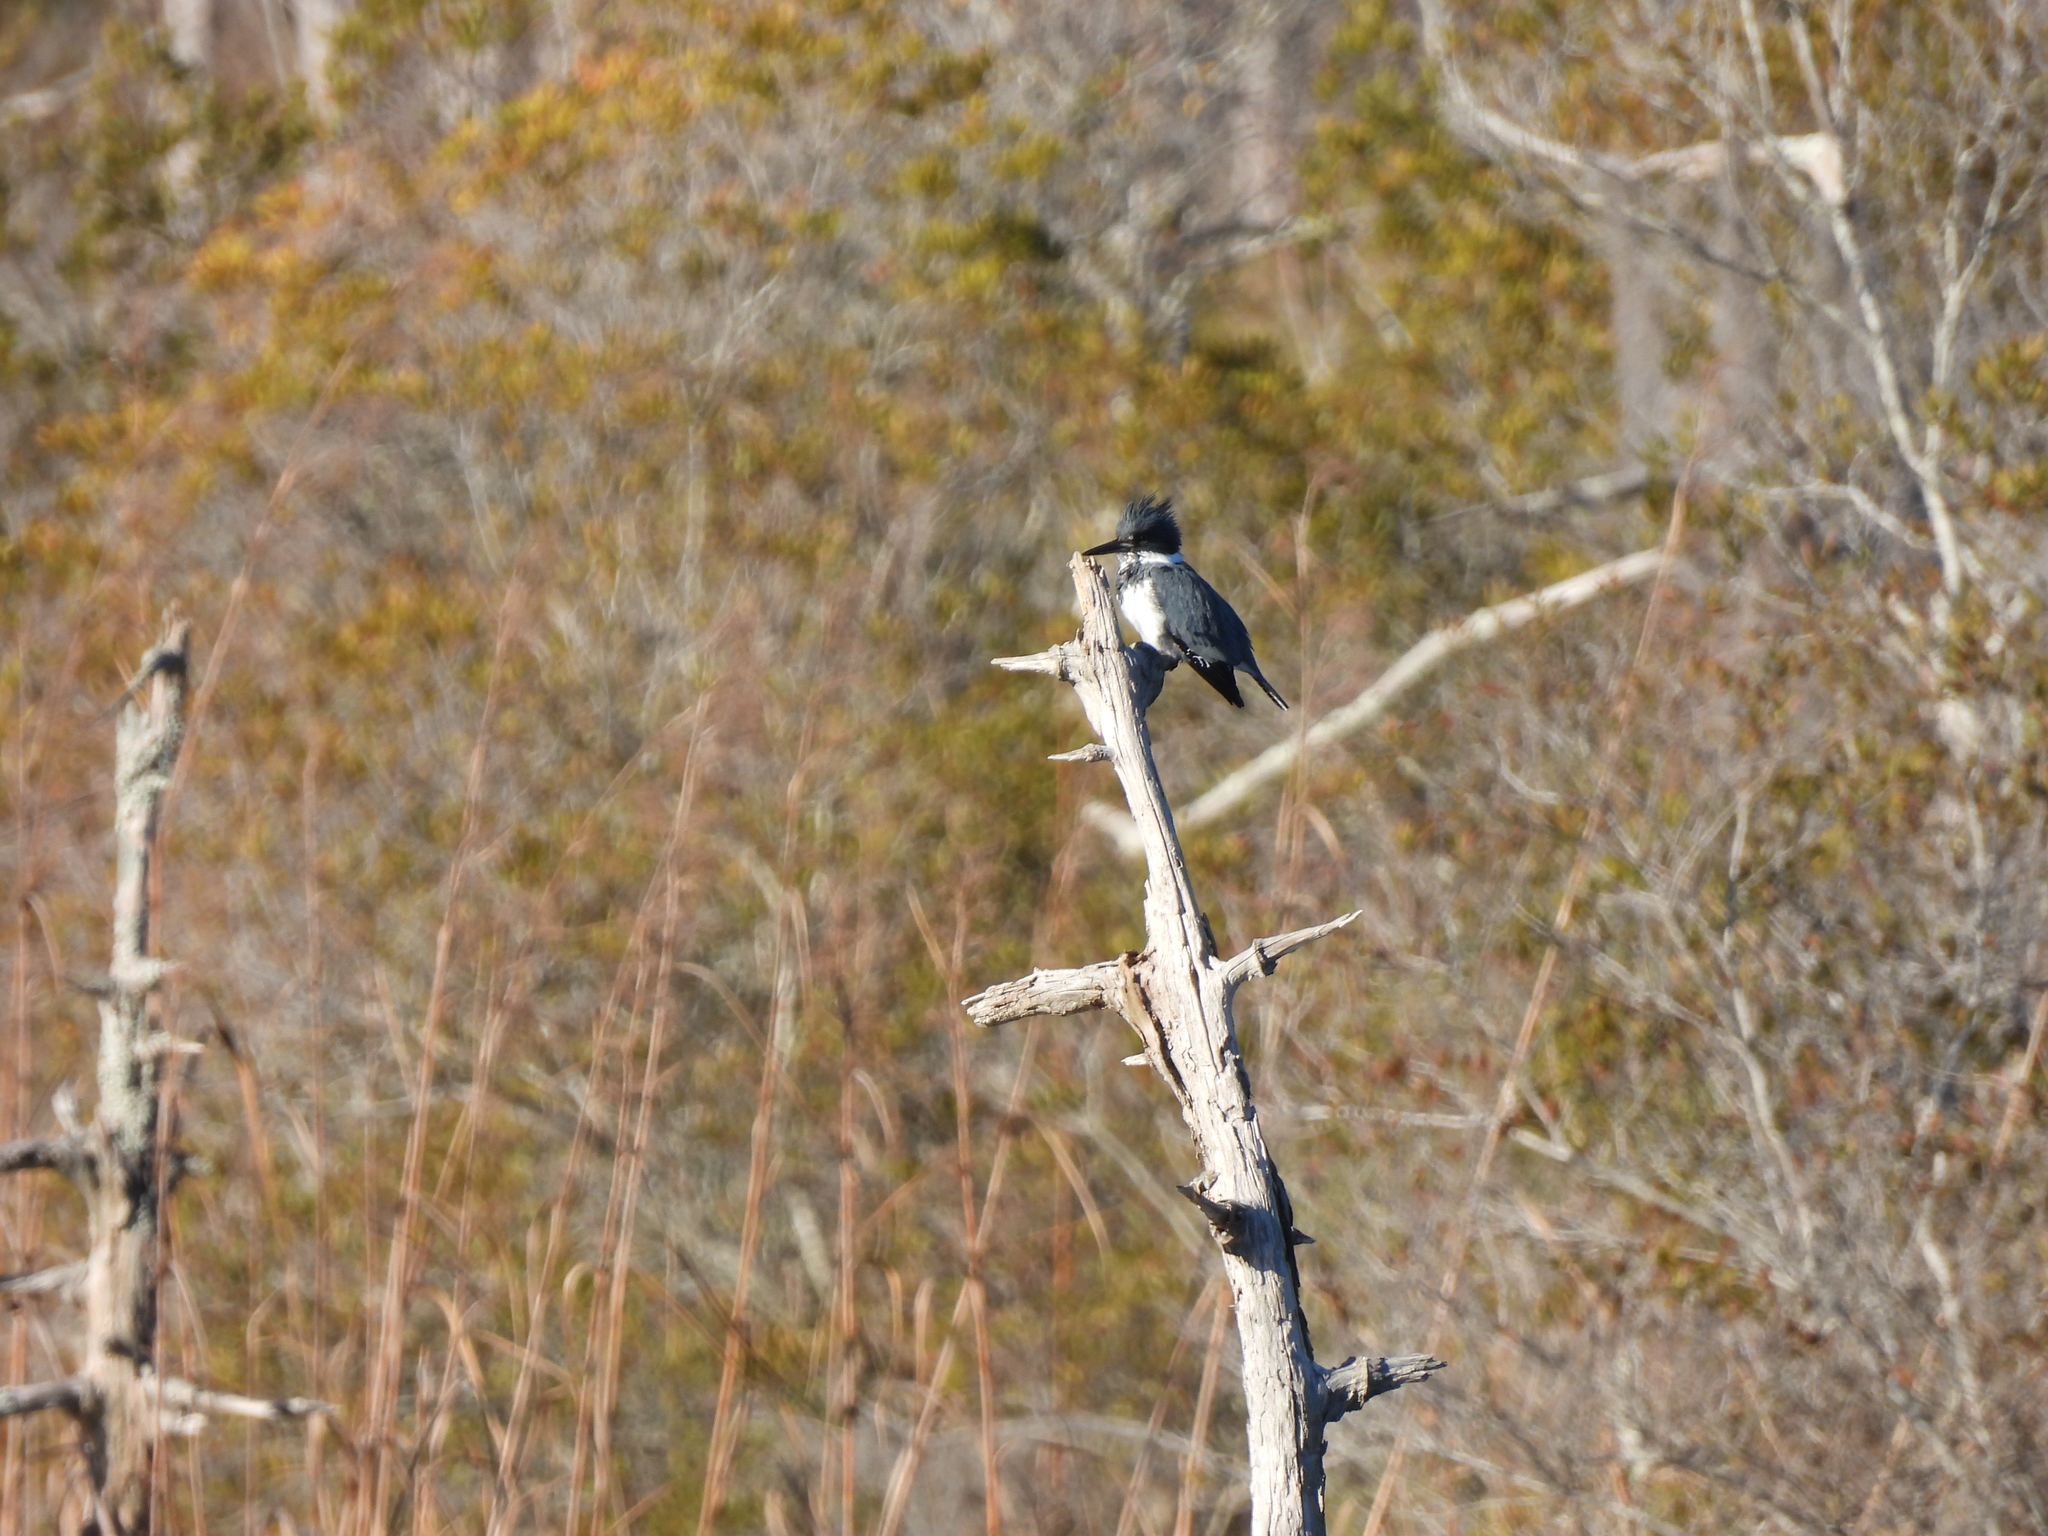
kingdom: Animalia
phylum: Chordata
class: Aves
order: Coraciiformes
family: Alcedinidae
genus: Megaceryle
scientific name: Megaceryle alcyon
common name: Belted kingfisher
